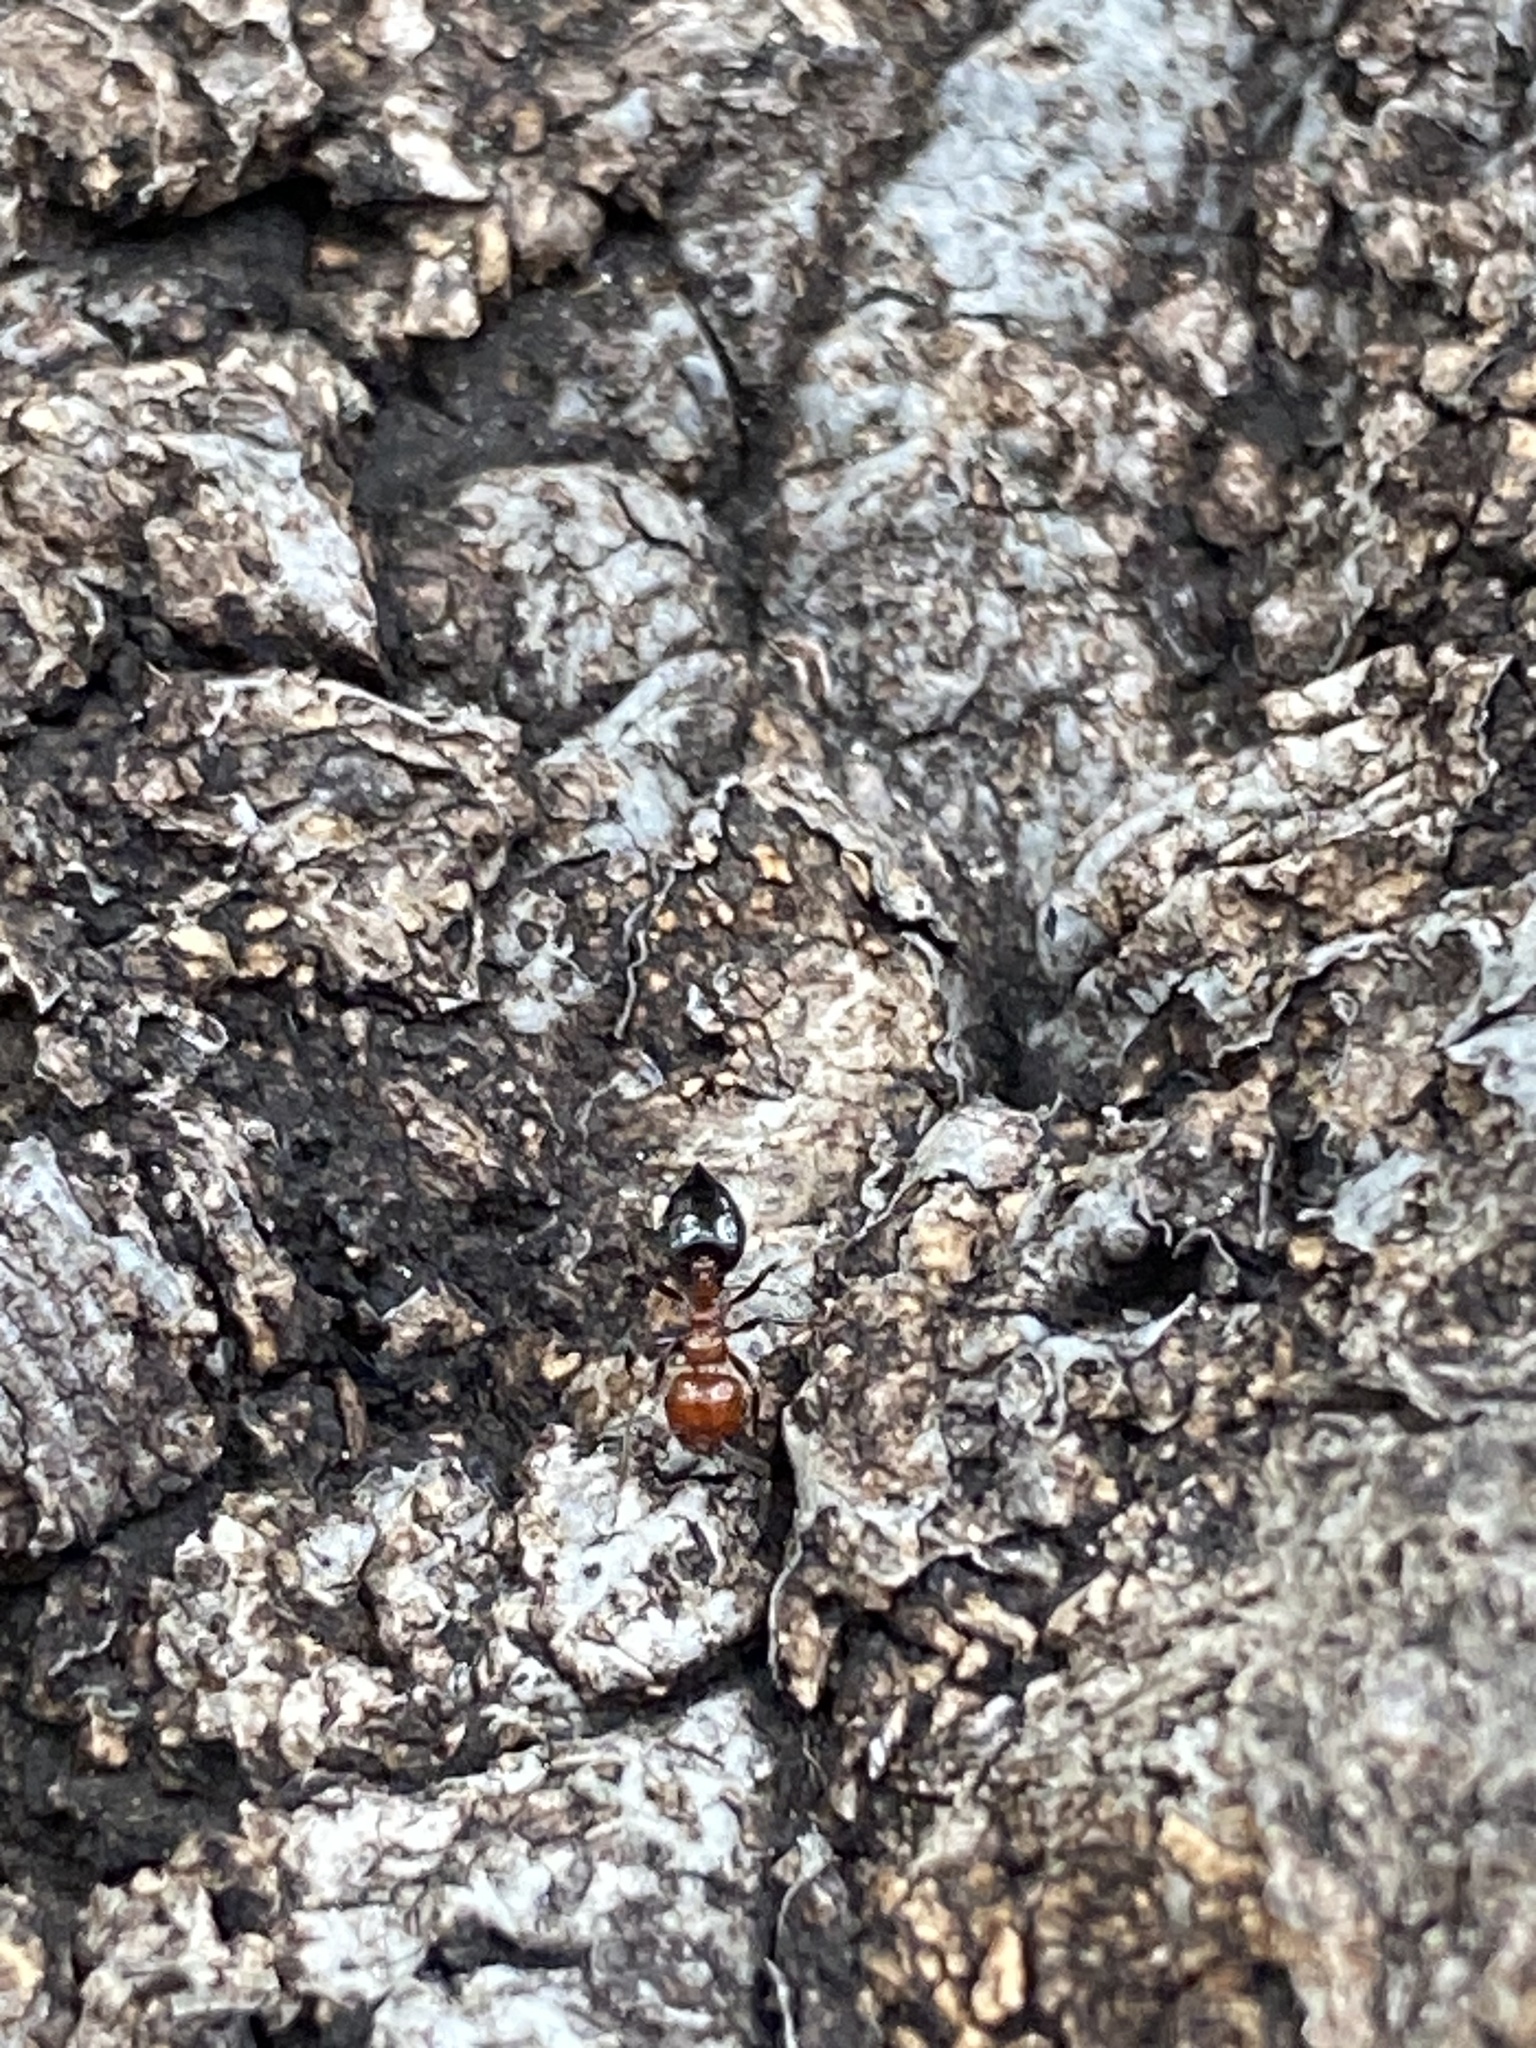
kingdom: Animalia
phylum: Arthropoda
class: Insecta
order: Hymenoptera
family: Formicidae
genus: Crematogaster
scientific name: Crematogaster laeviuscula
